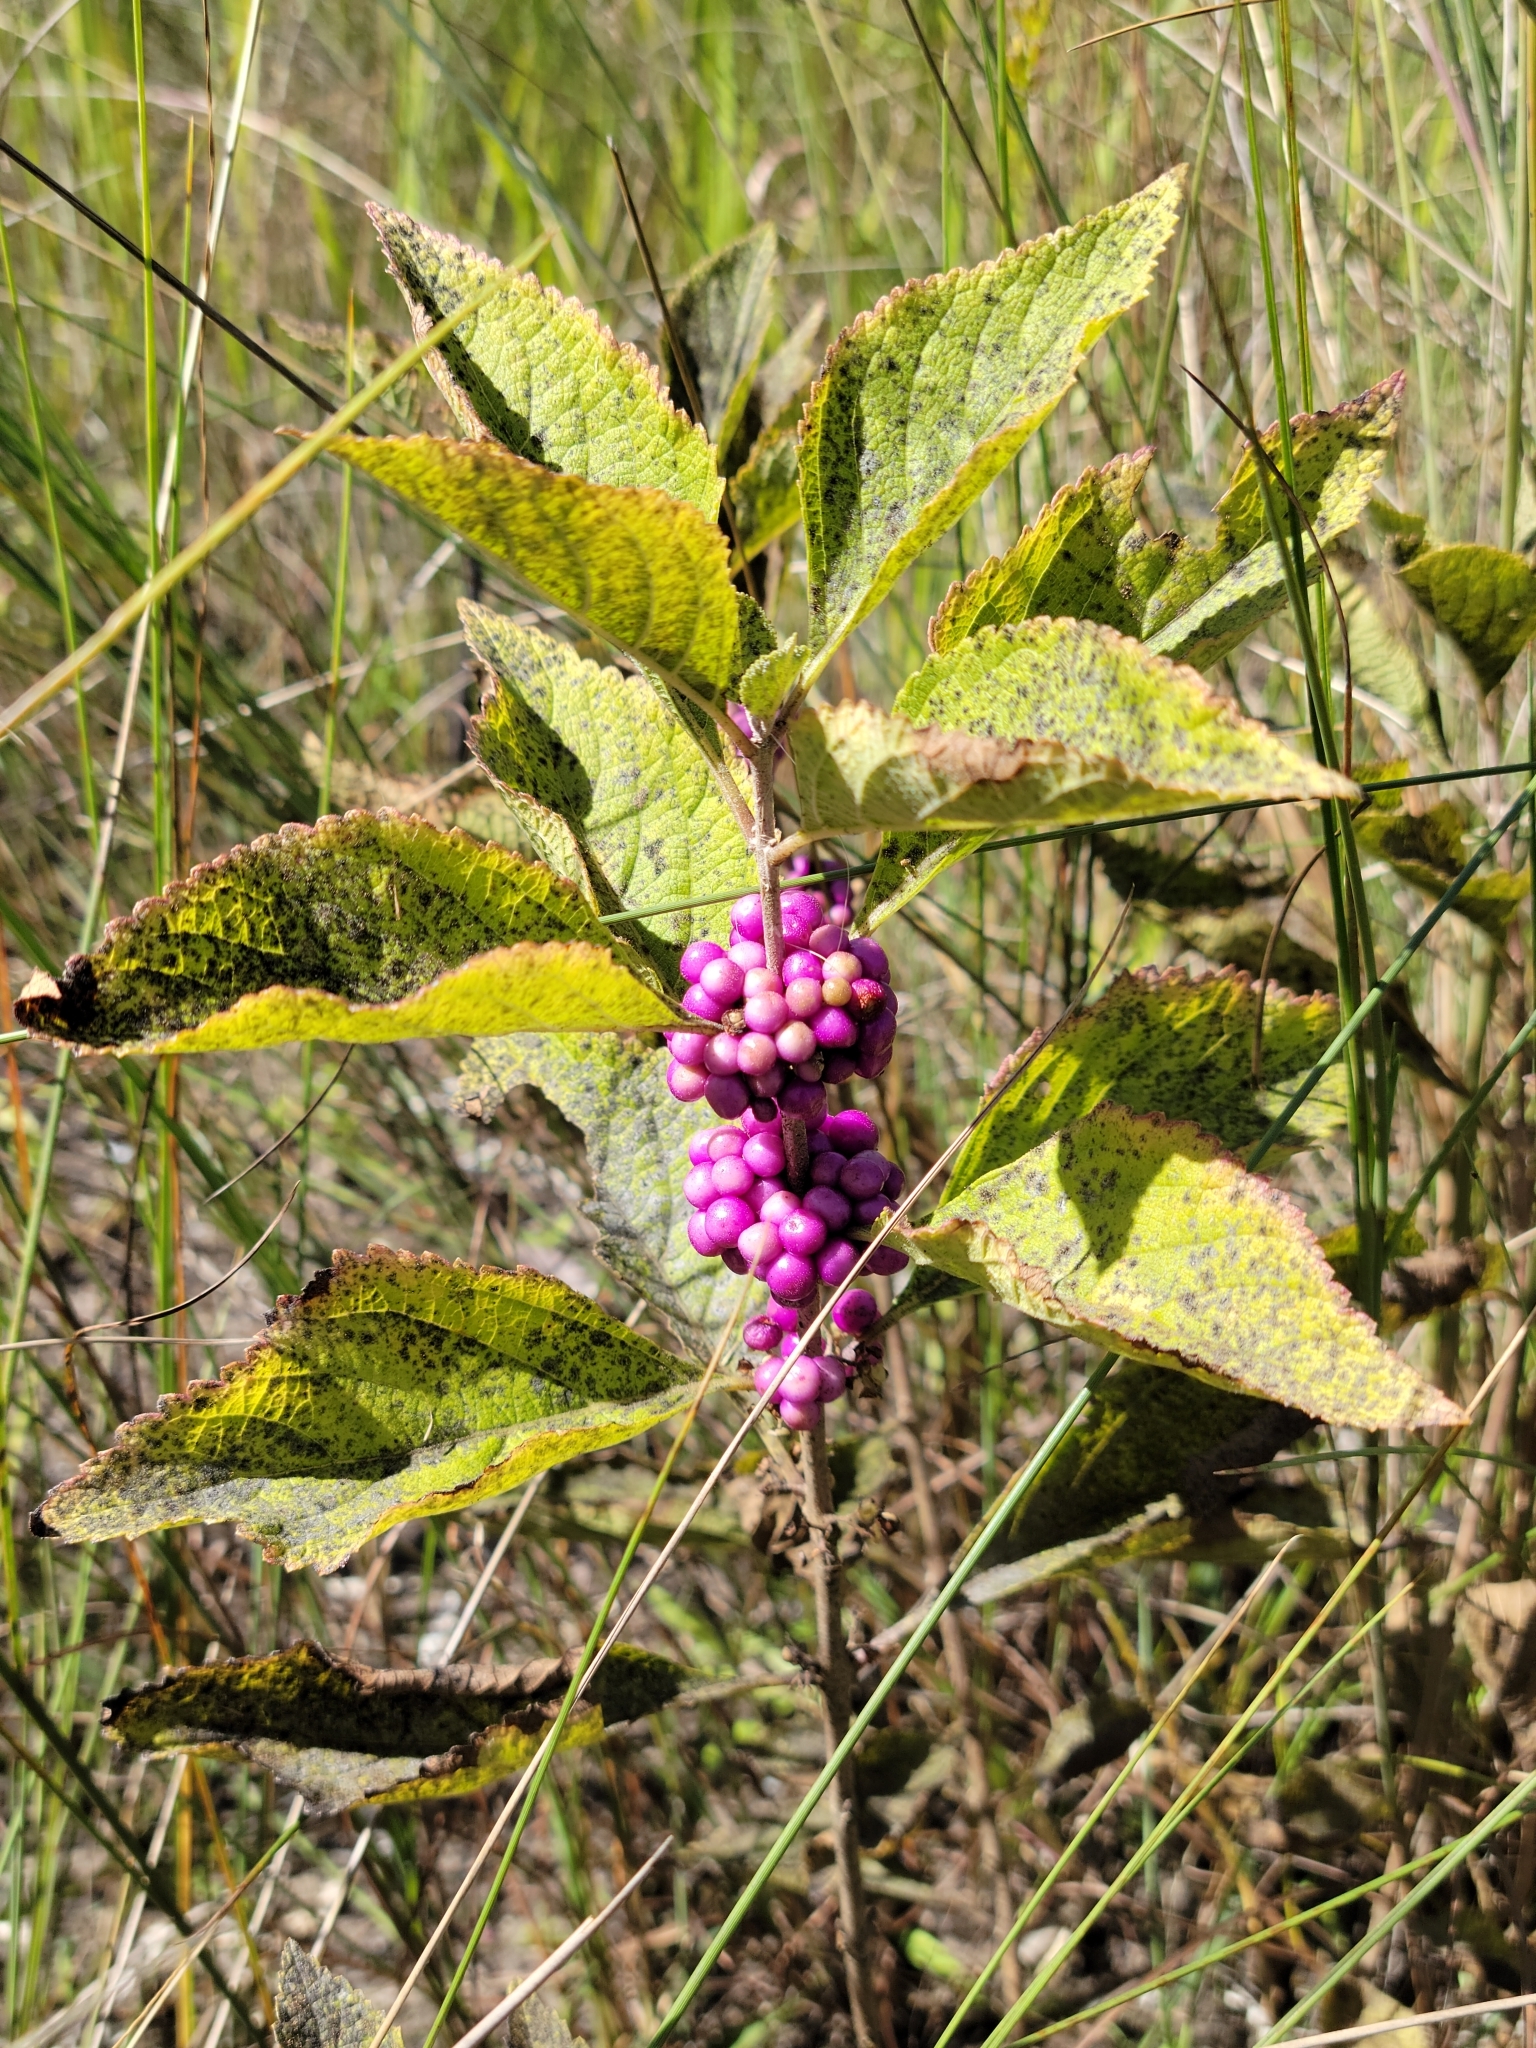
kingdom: Plantae
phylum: Tracheophyta
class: Magnoliopsida
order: Lamiales
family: Lamiaceae
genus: Callicarpa
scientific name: Callicarpa americana
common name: American beautyberry
